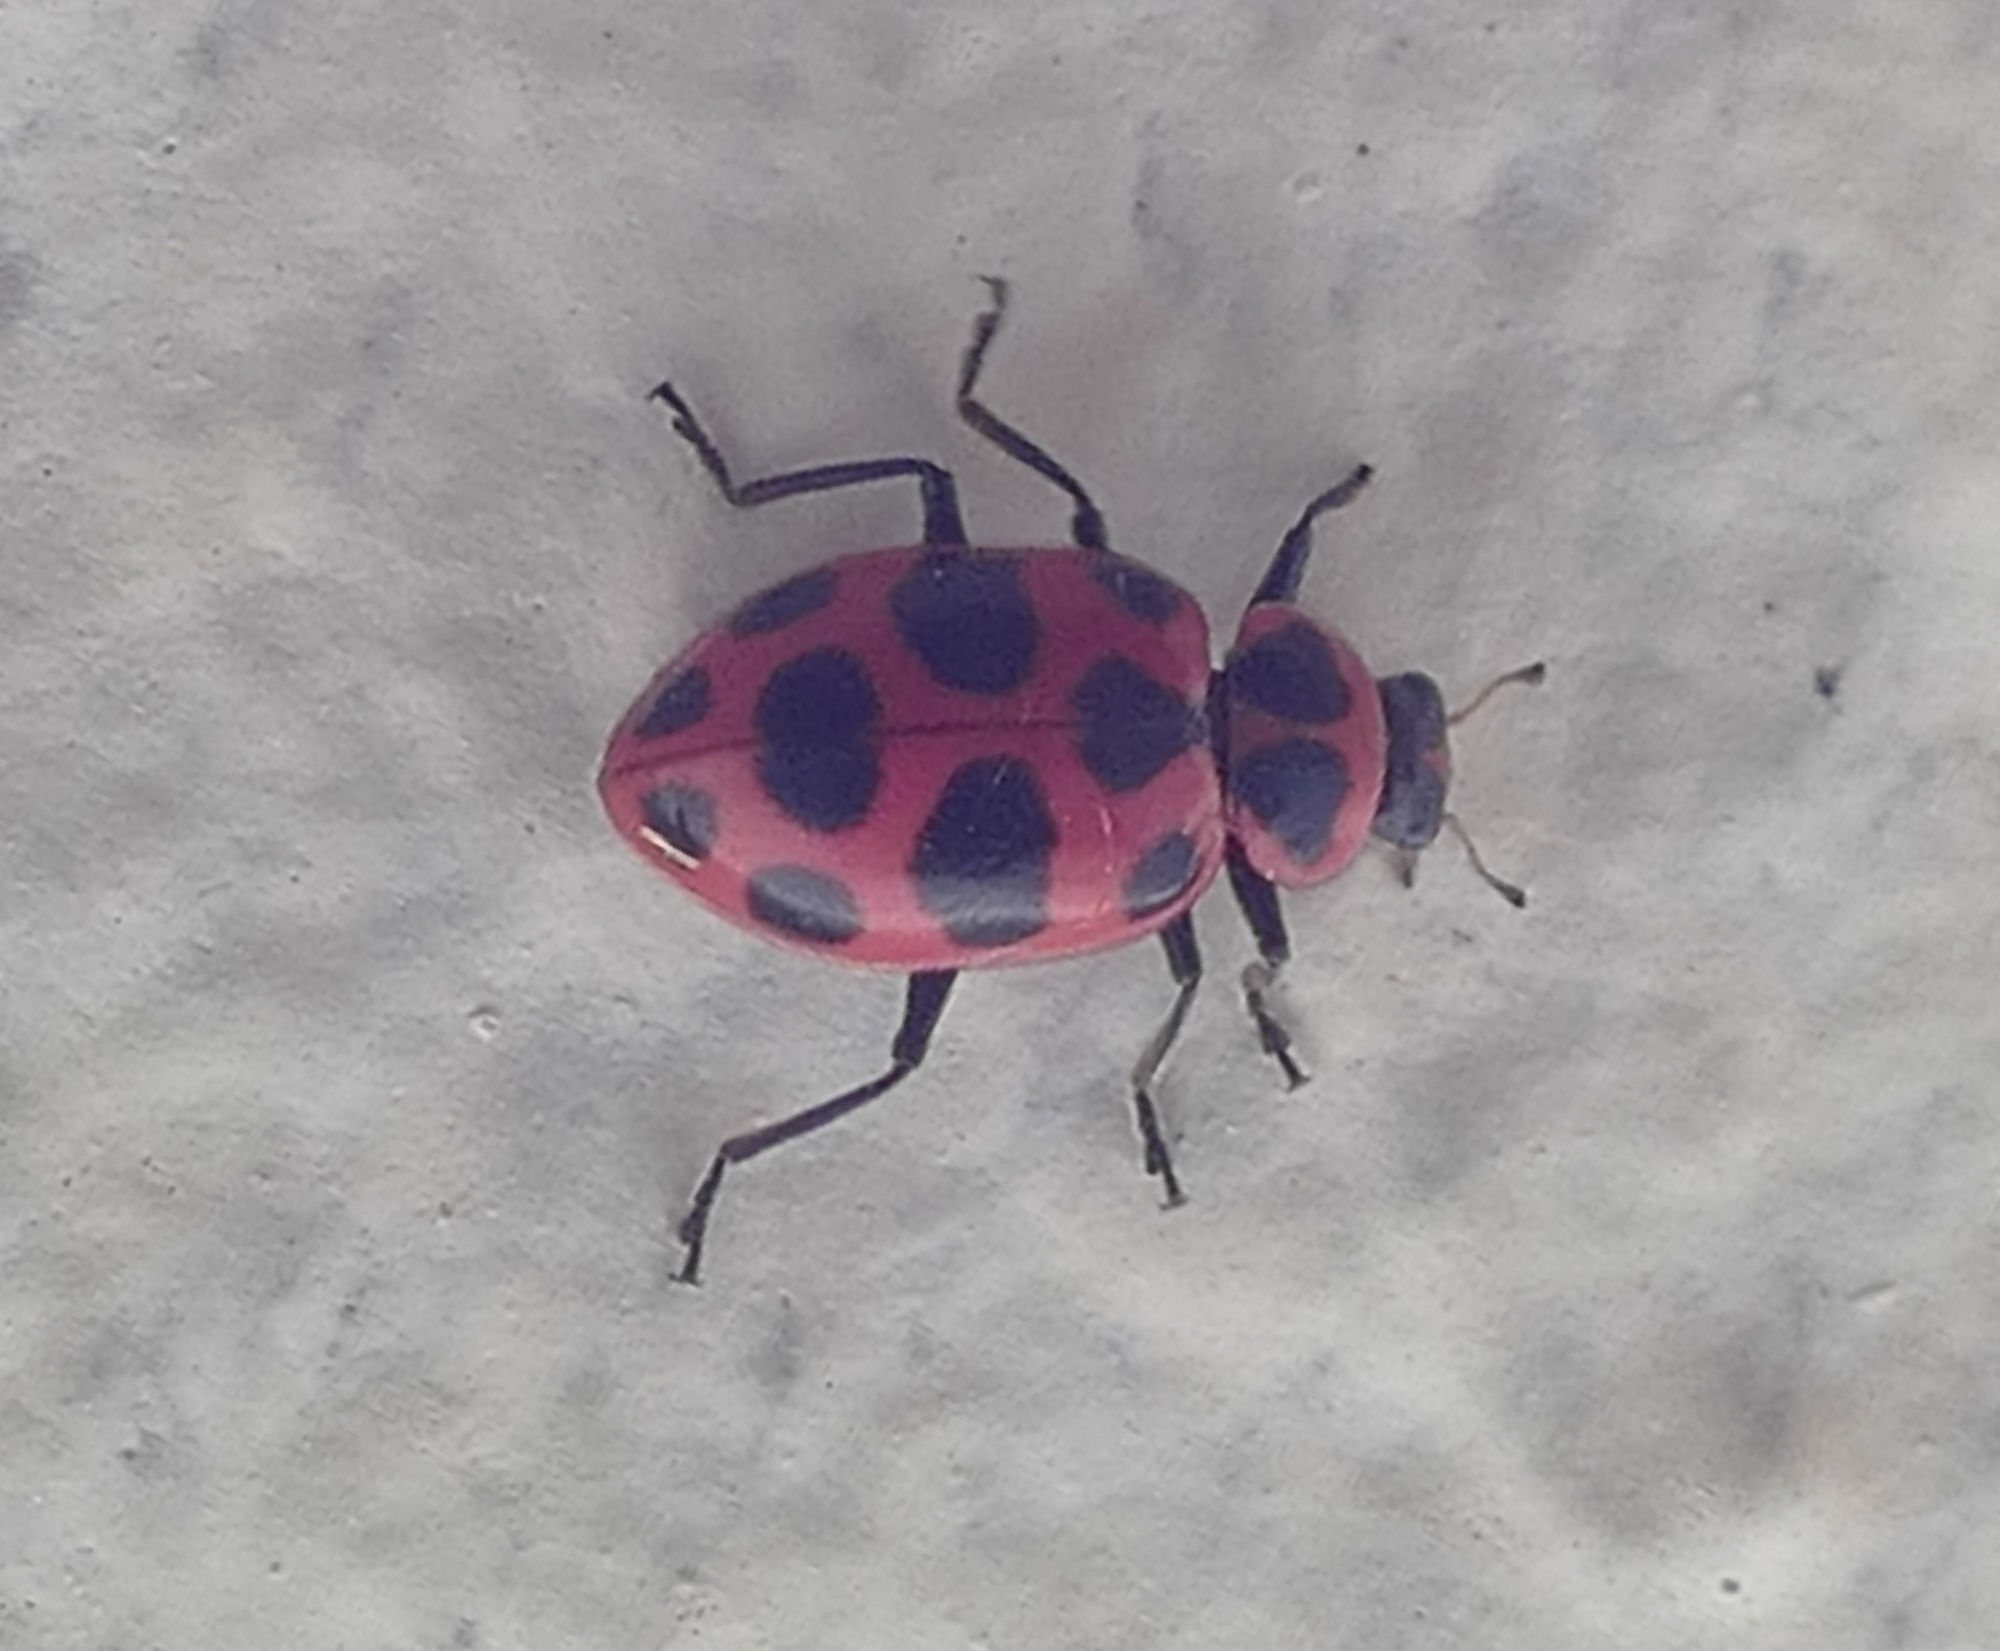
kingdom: Animalia
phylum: Arthropoda
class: Insecta
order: Coleoptera
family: Coccinellidae
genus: Coleomegilla
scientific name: Coleomegilla maculata
